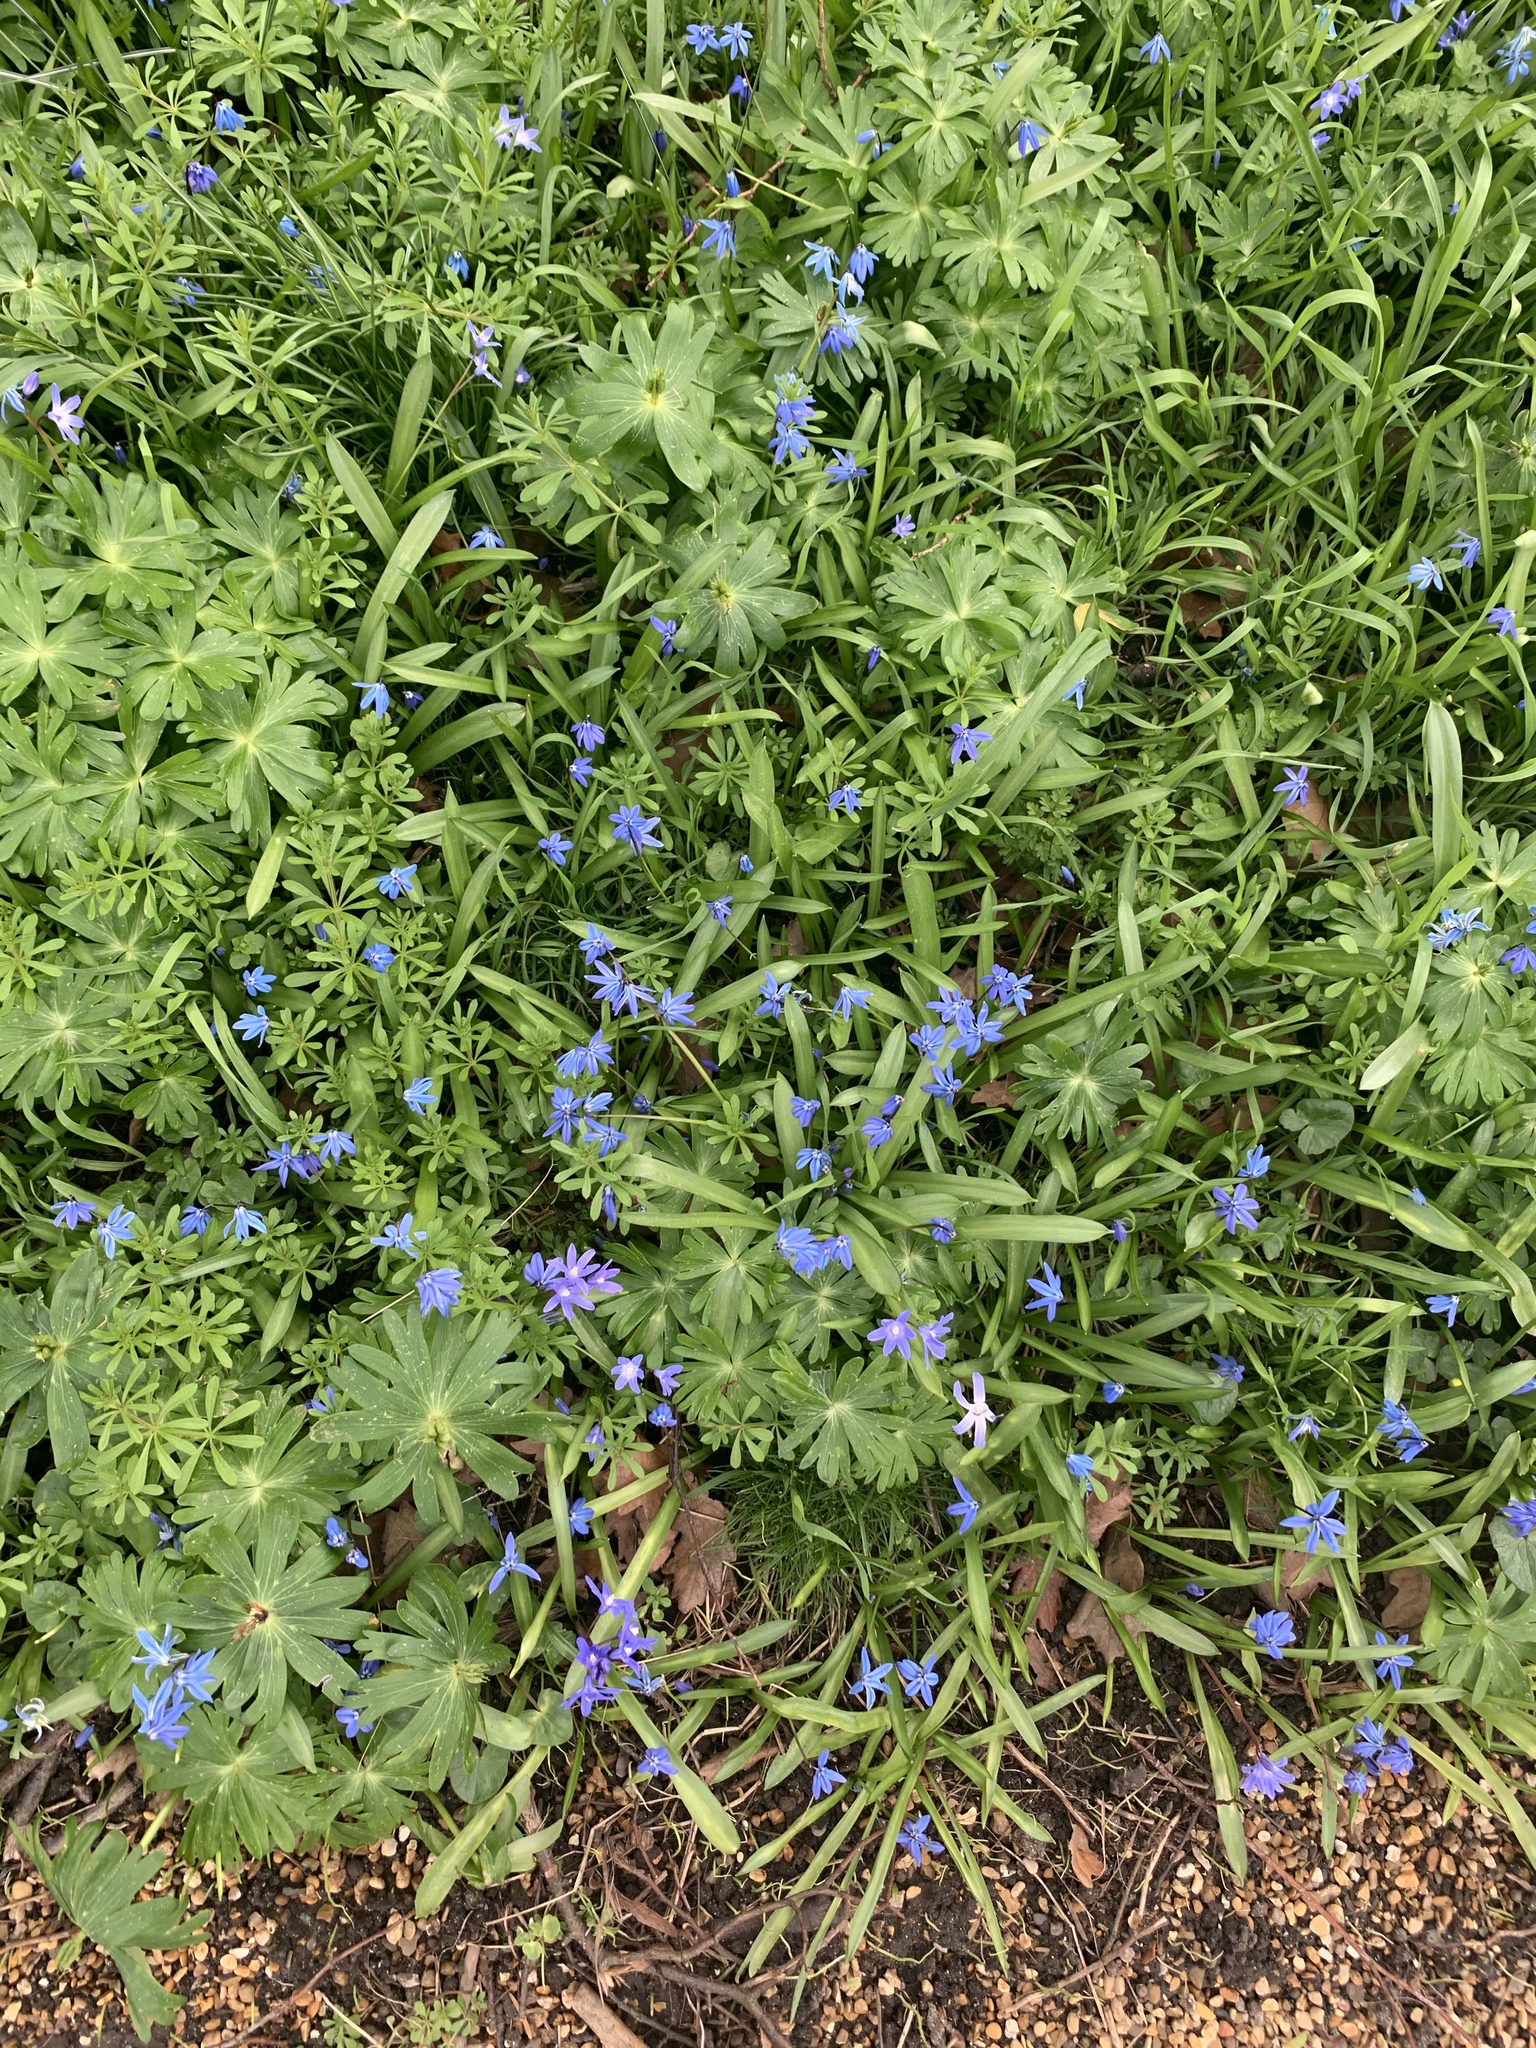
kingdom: Plantae
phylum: Tracheophyta
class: Liliopsida
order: Asparagales
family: Asparagaceae
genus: Scilla
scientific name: Scilla siberica
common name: Siberian squill
